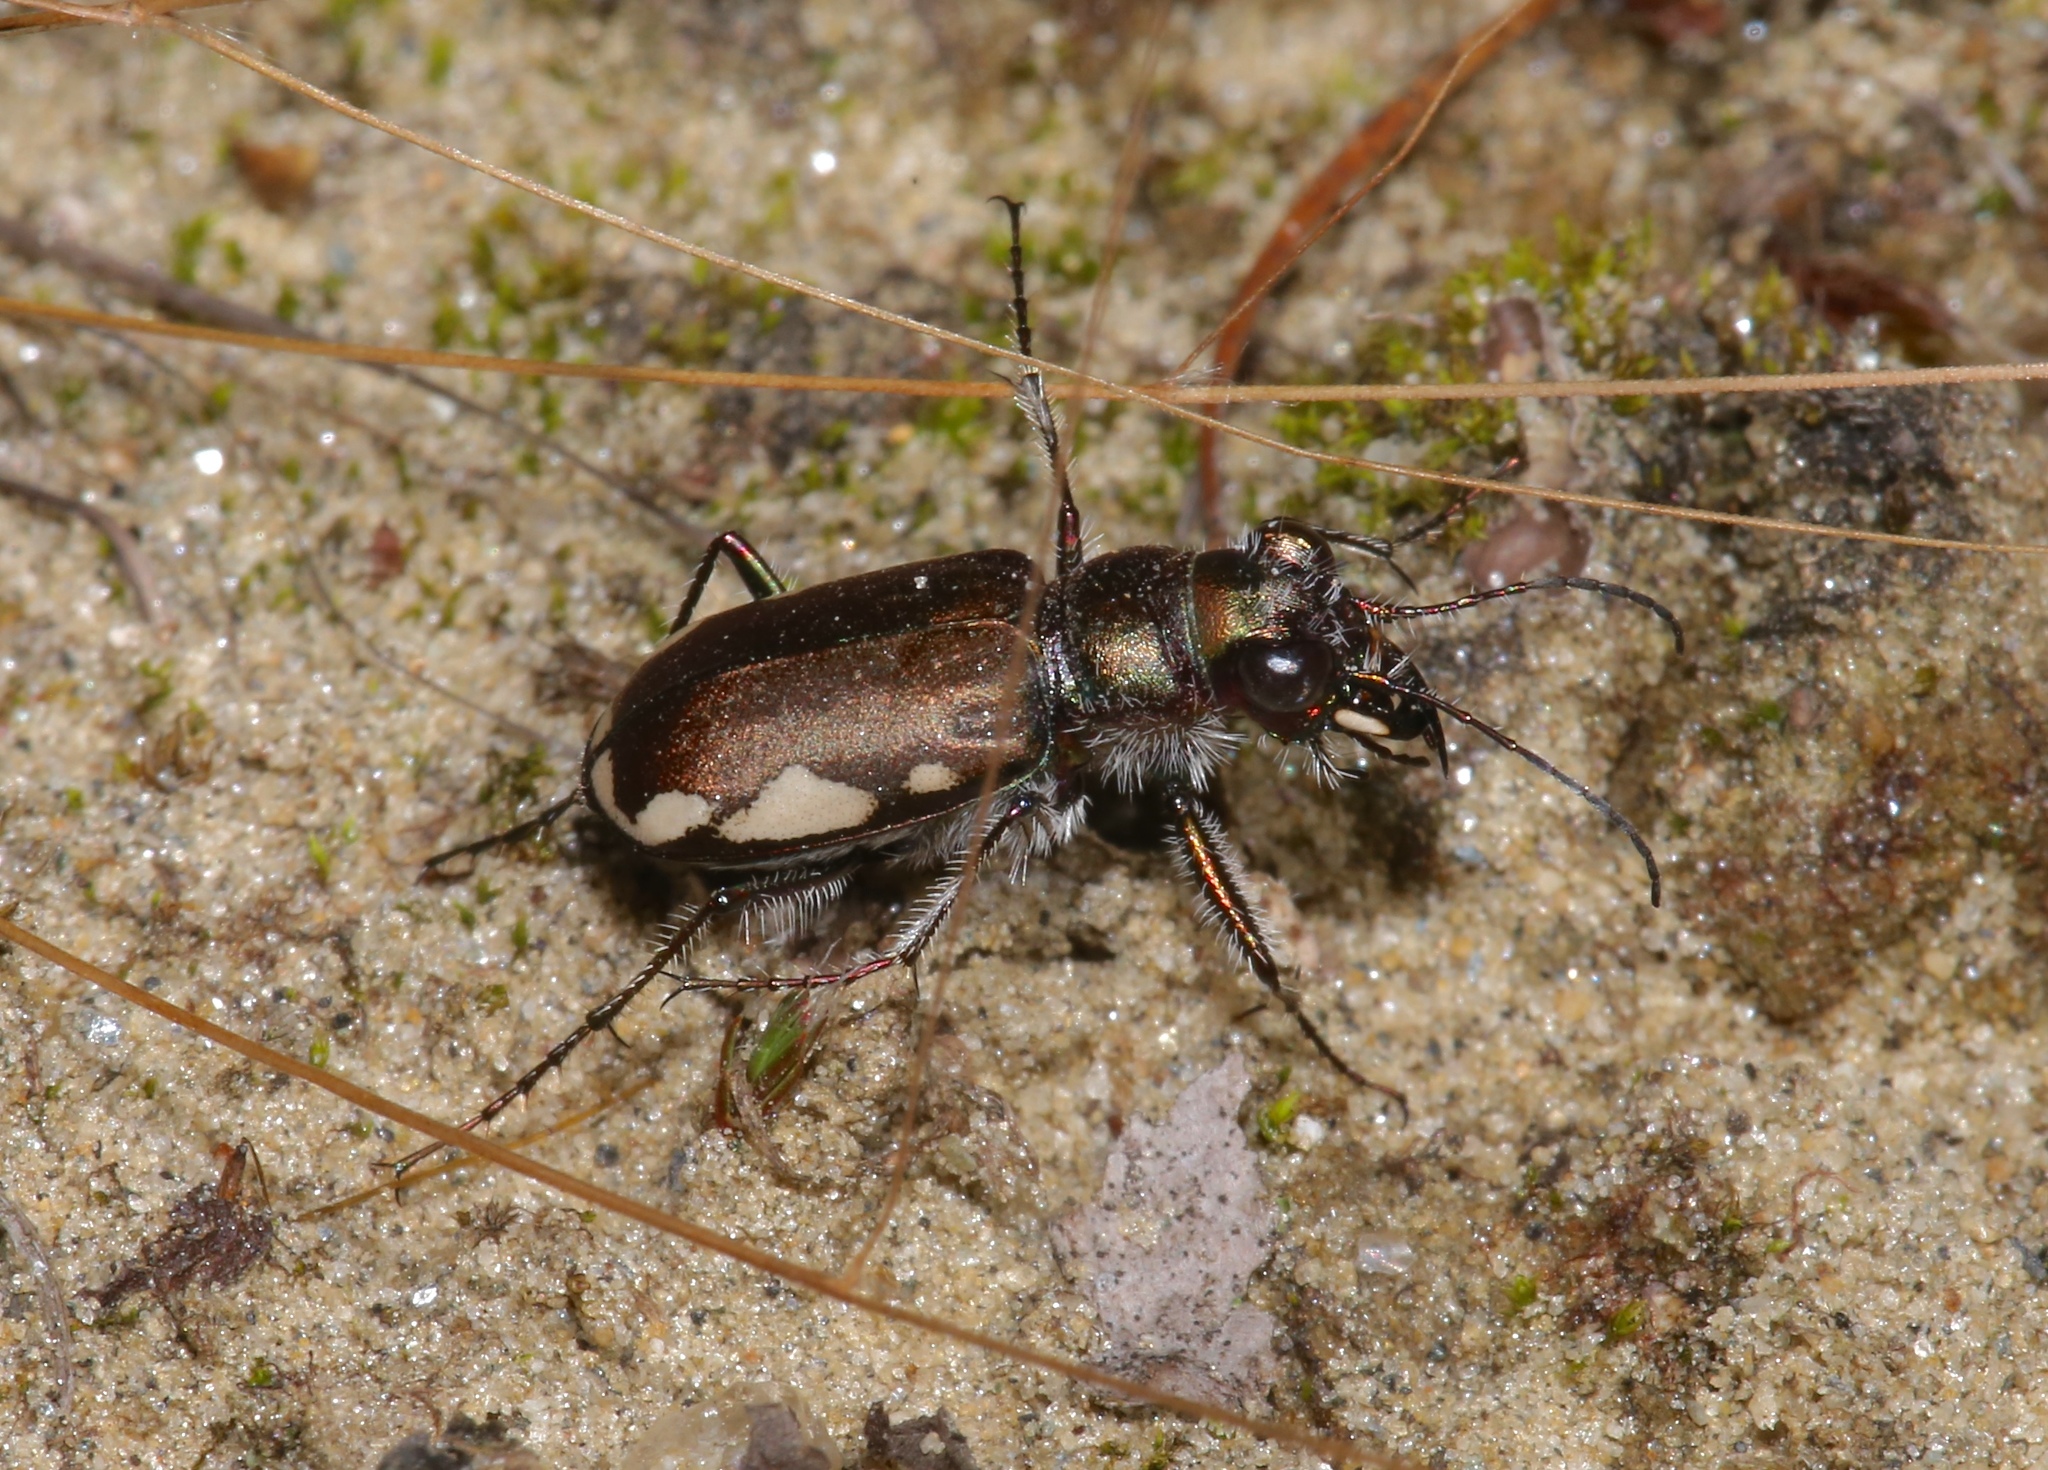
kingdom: Animalia
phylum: Arthropoda
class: Insecta
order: Coleoptera
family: Carabidae
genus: Cicindela
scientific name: Cicindela scutellaris
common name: Festive tiger beetle
